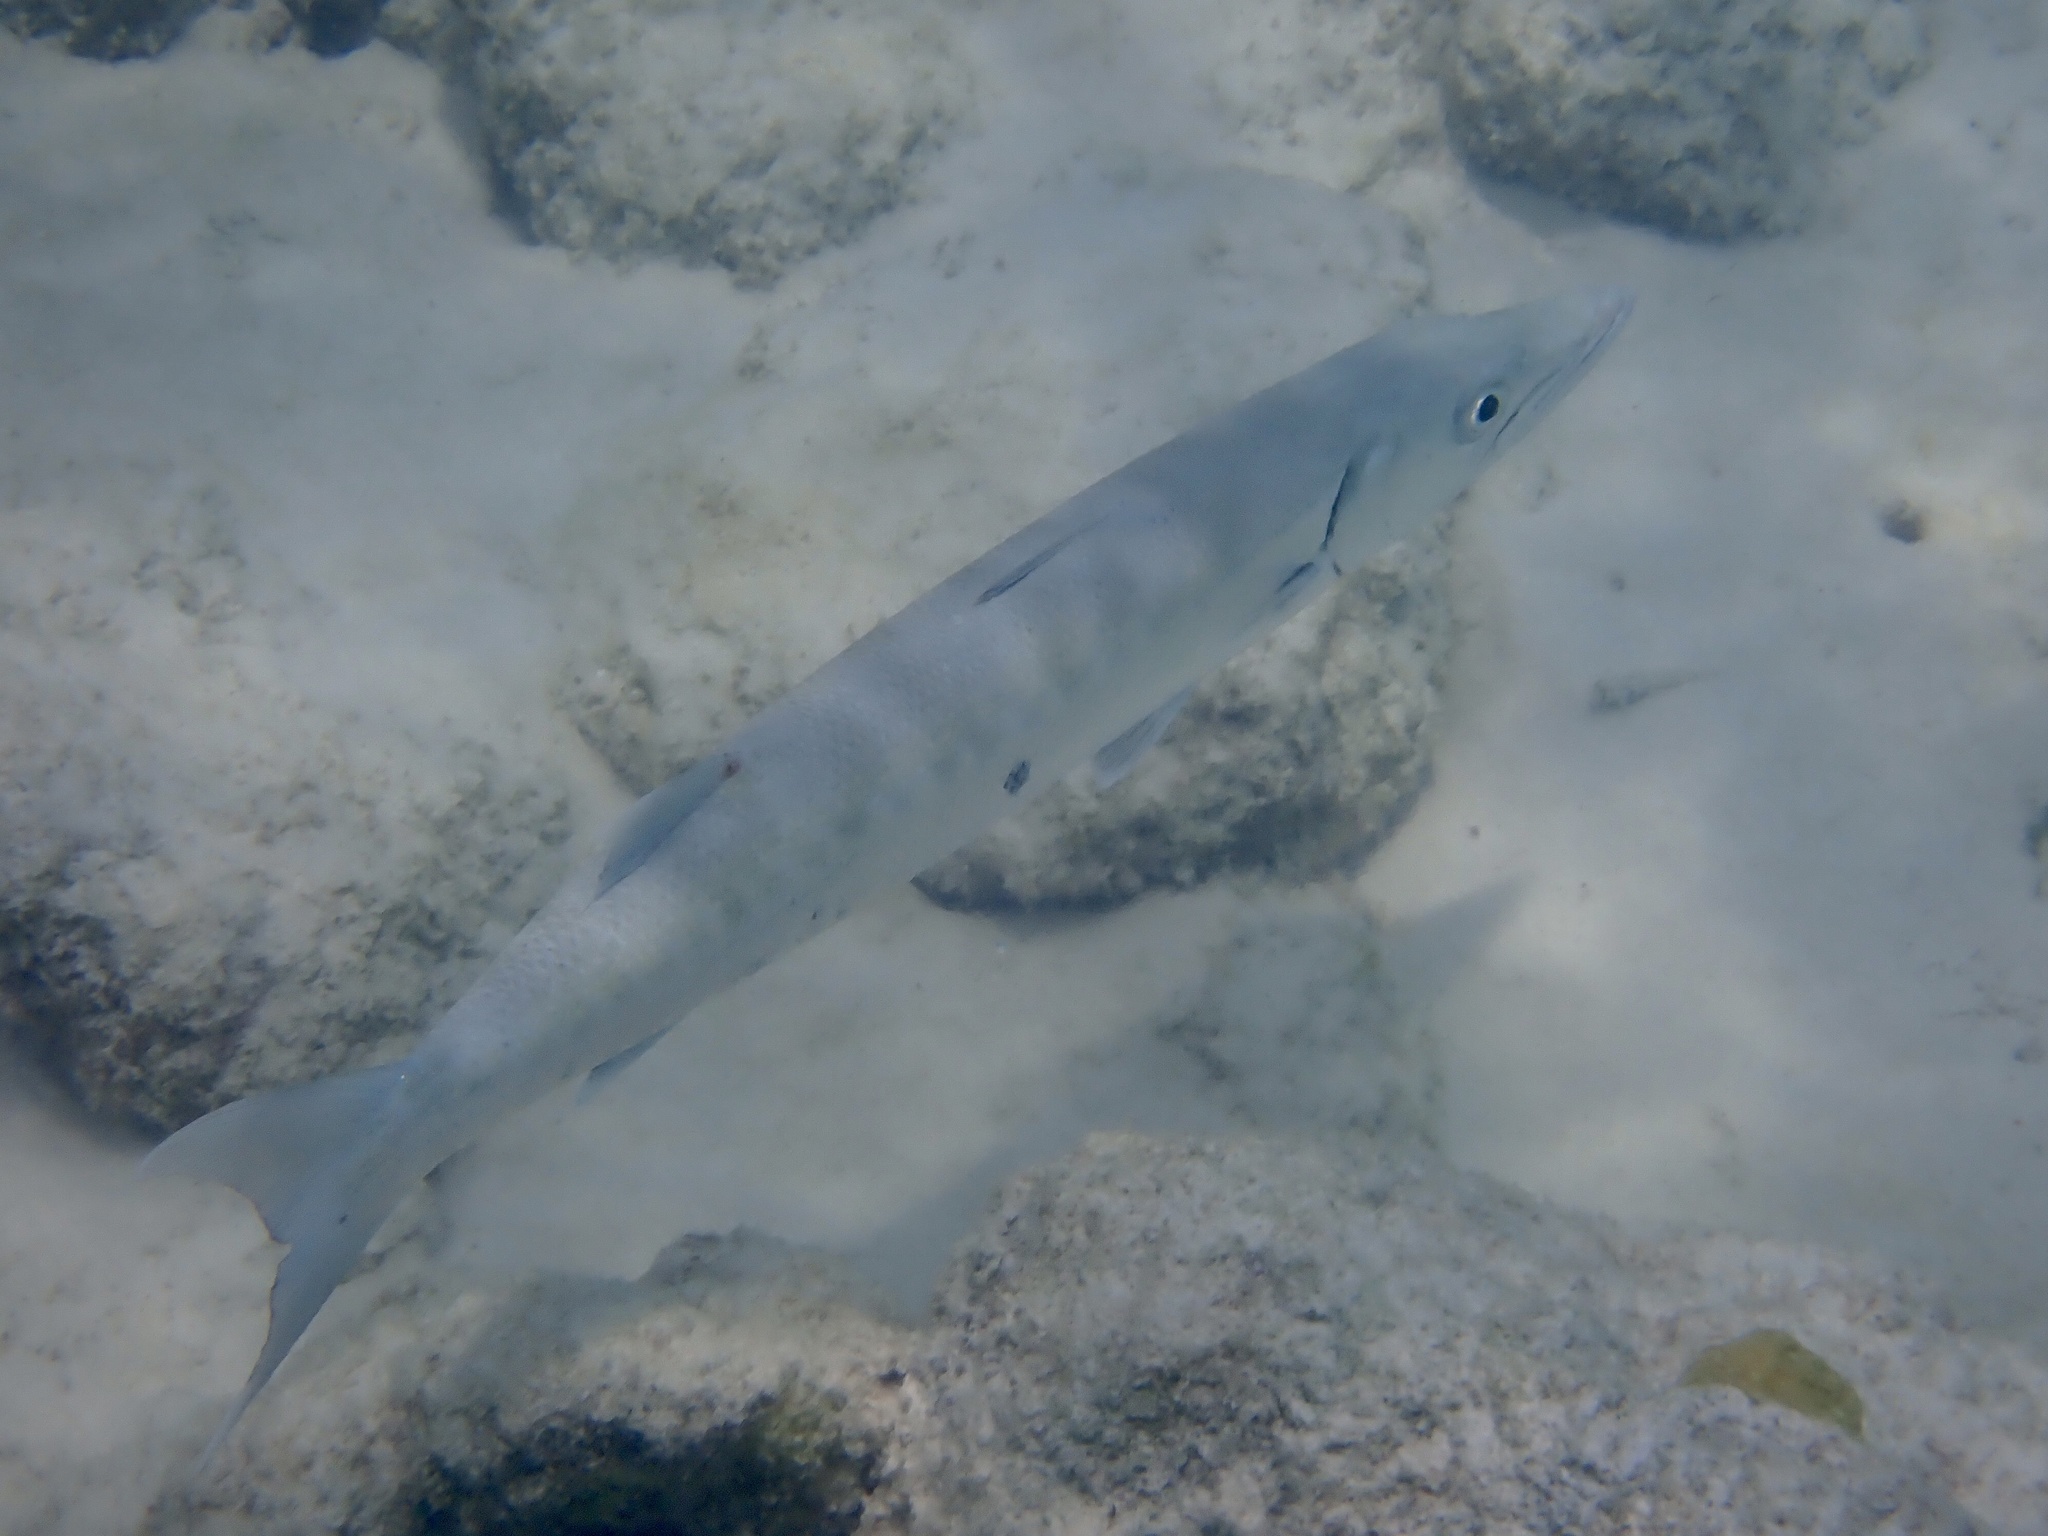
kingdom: Animalia
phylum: Chordata
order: Perciformes
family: Sphyraenidae
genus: Sphyraena
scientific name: Sphyraena barracuda
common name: Great barracuda
